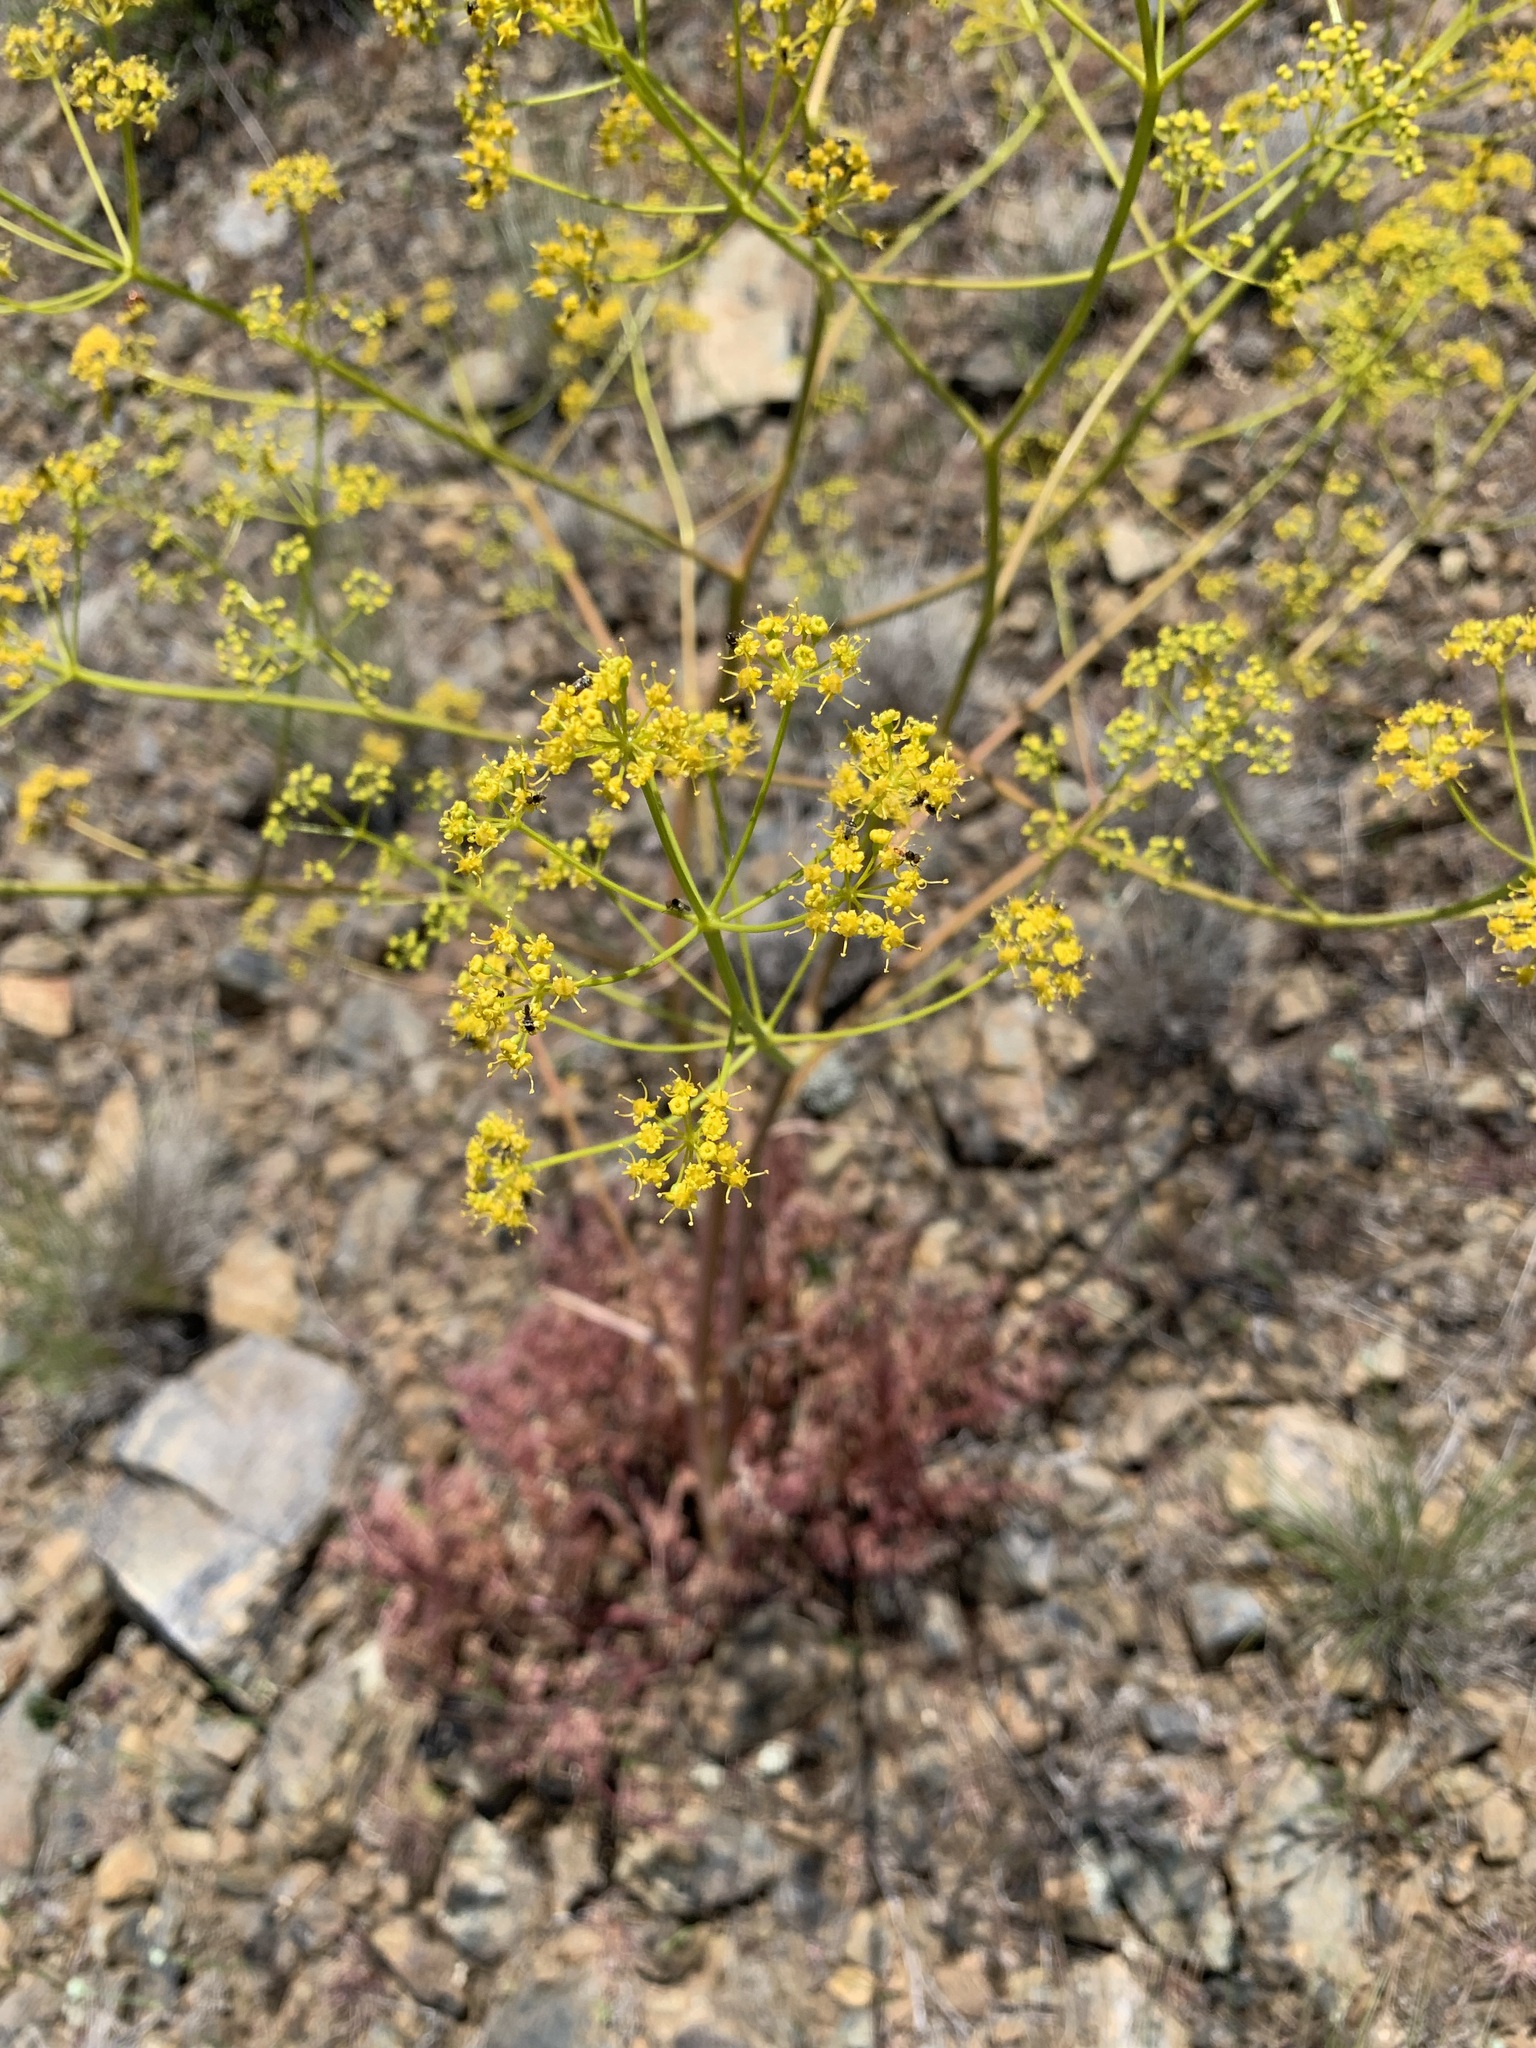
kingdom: Plantae
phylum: Tracheophyta
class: Magnoliopsida
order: Apiales
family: Apiaceae
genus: Ferula
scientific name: Ferula caspica
